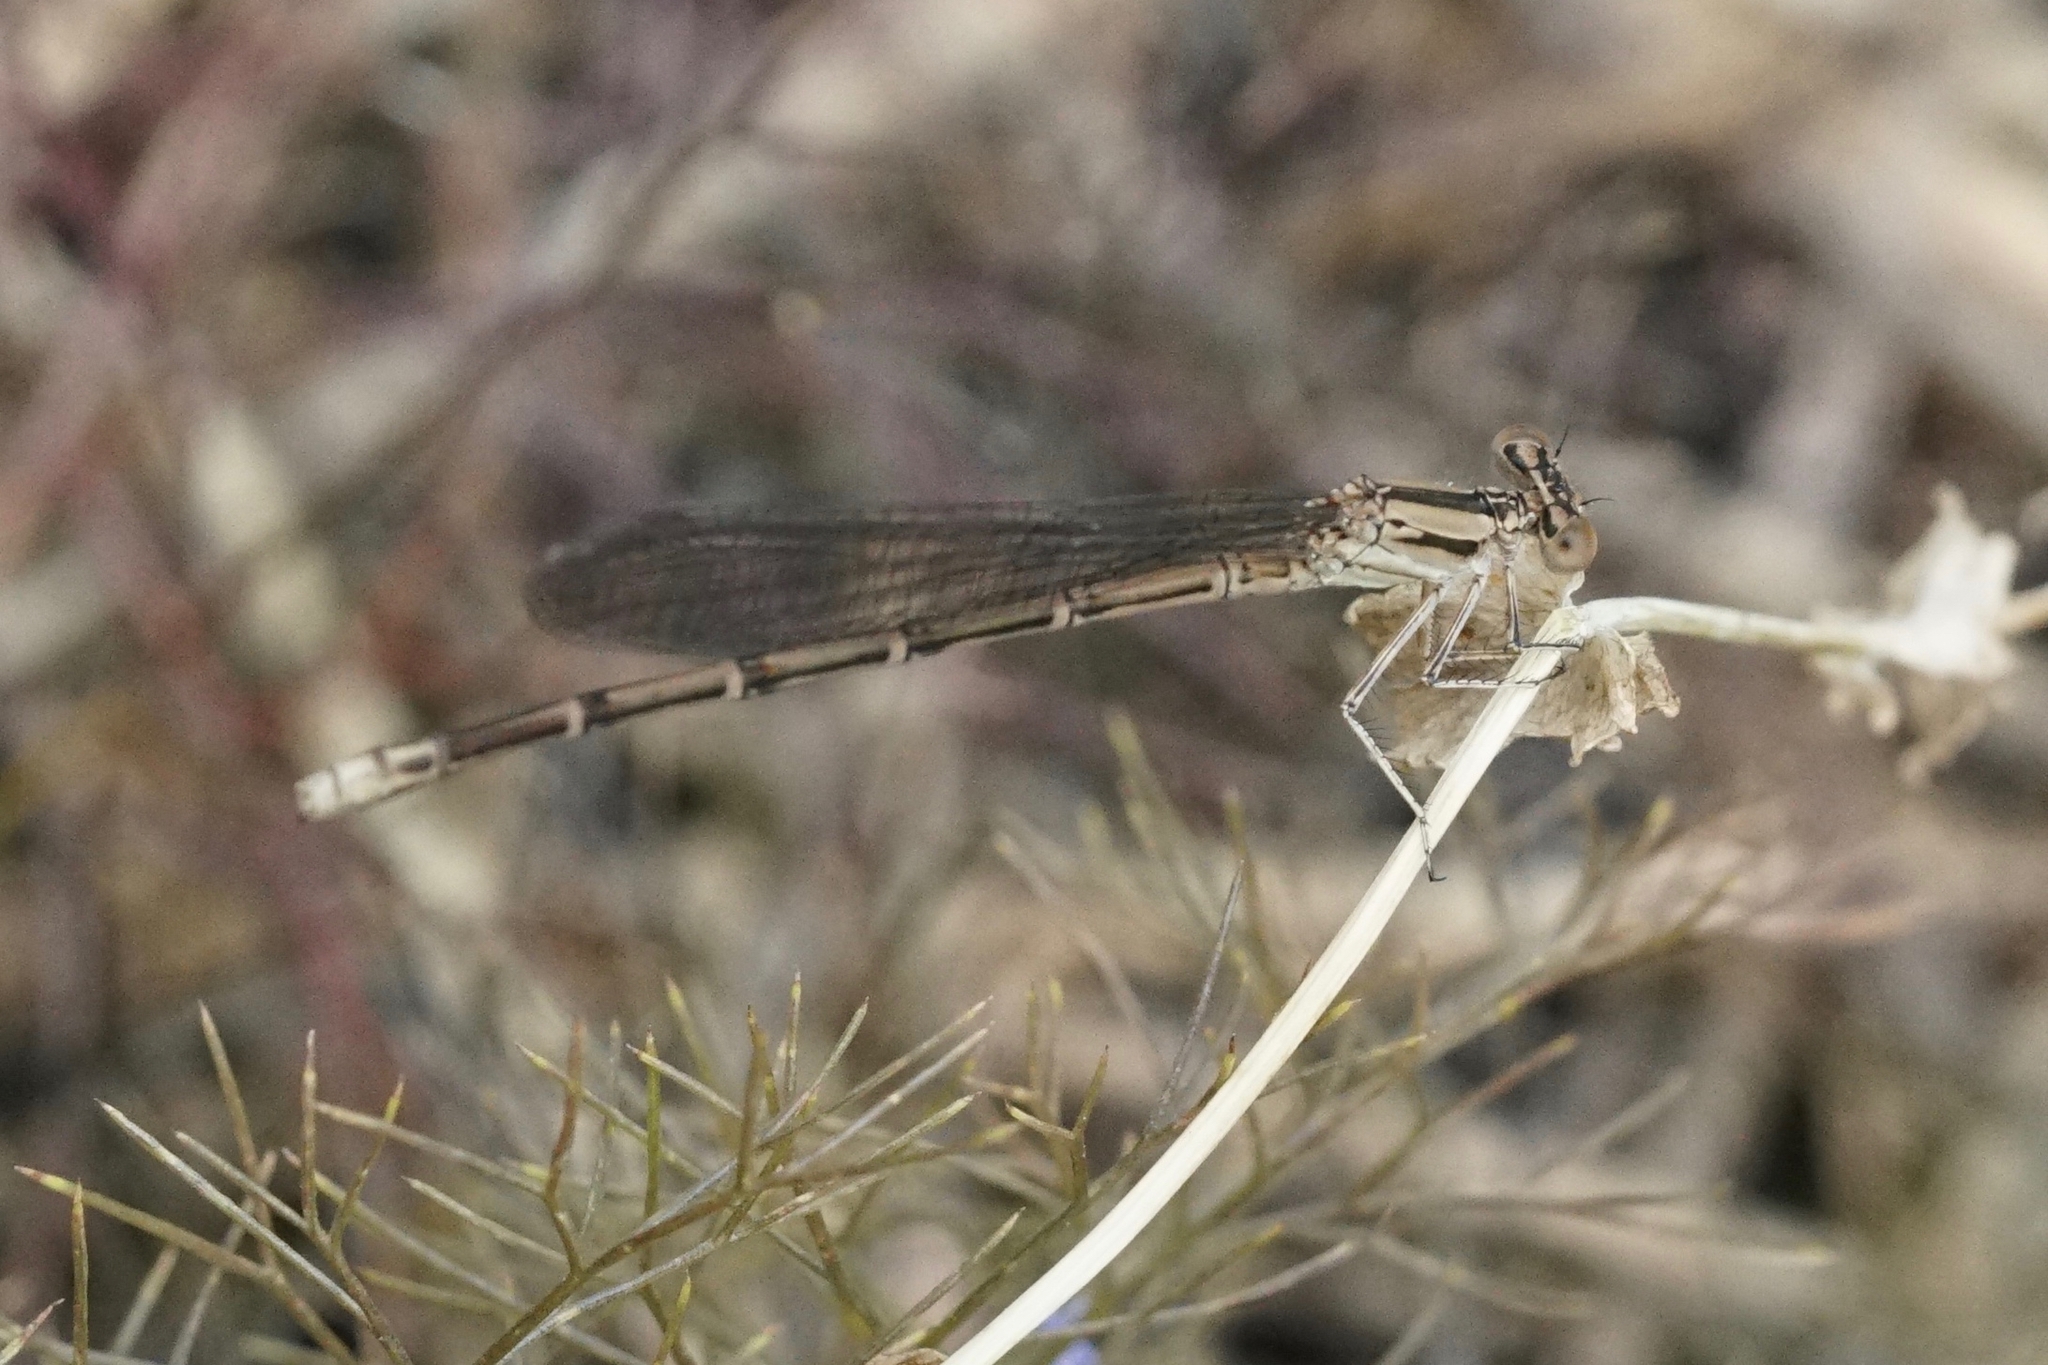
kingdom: Animalia
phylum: Arthropoda
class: Insecta
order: Odonata
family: Coenagrionidae
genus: Argia
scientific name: Argia fumipennis
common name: Variable dancer
